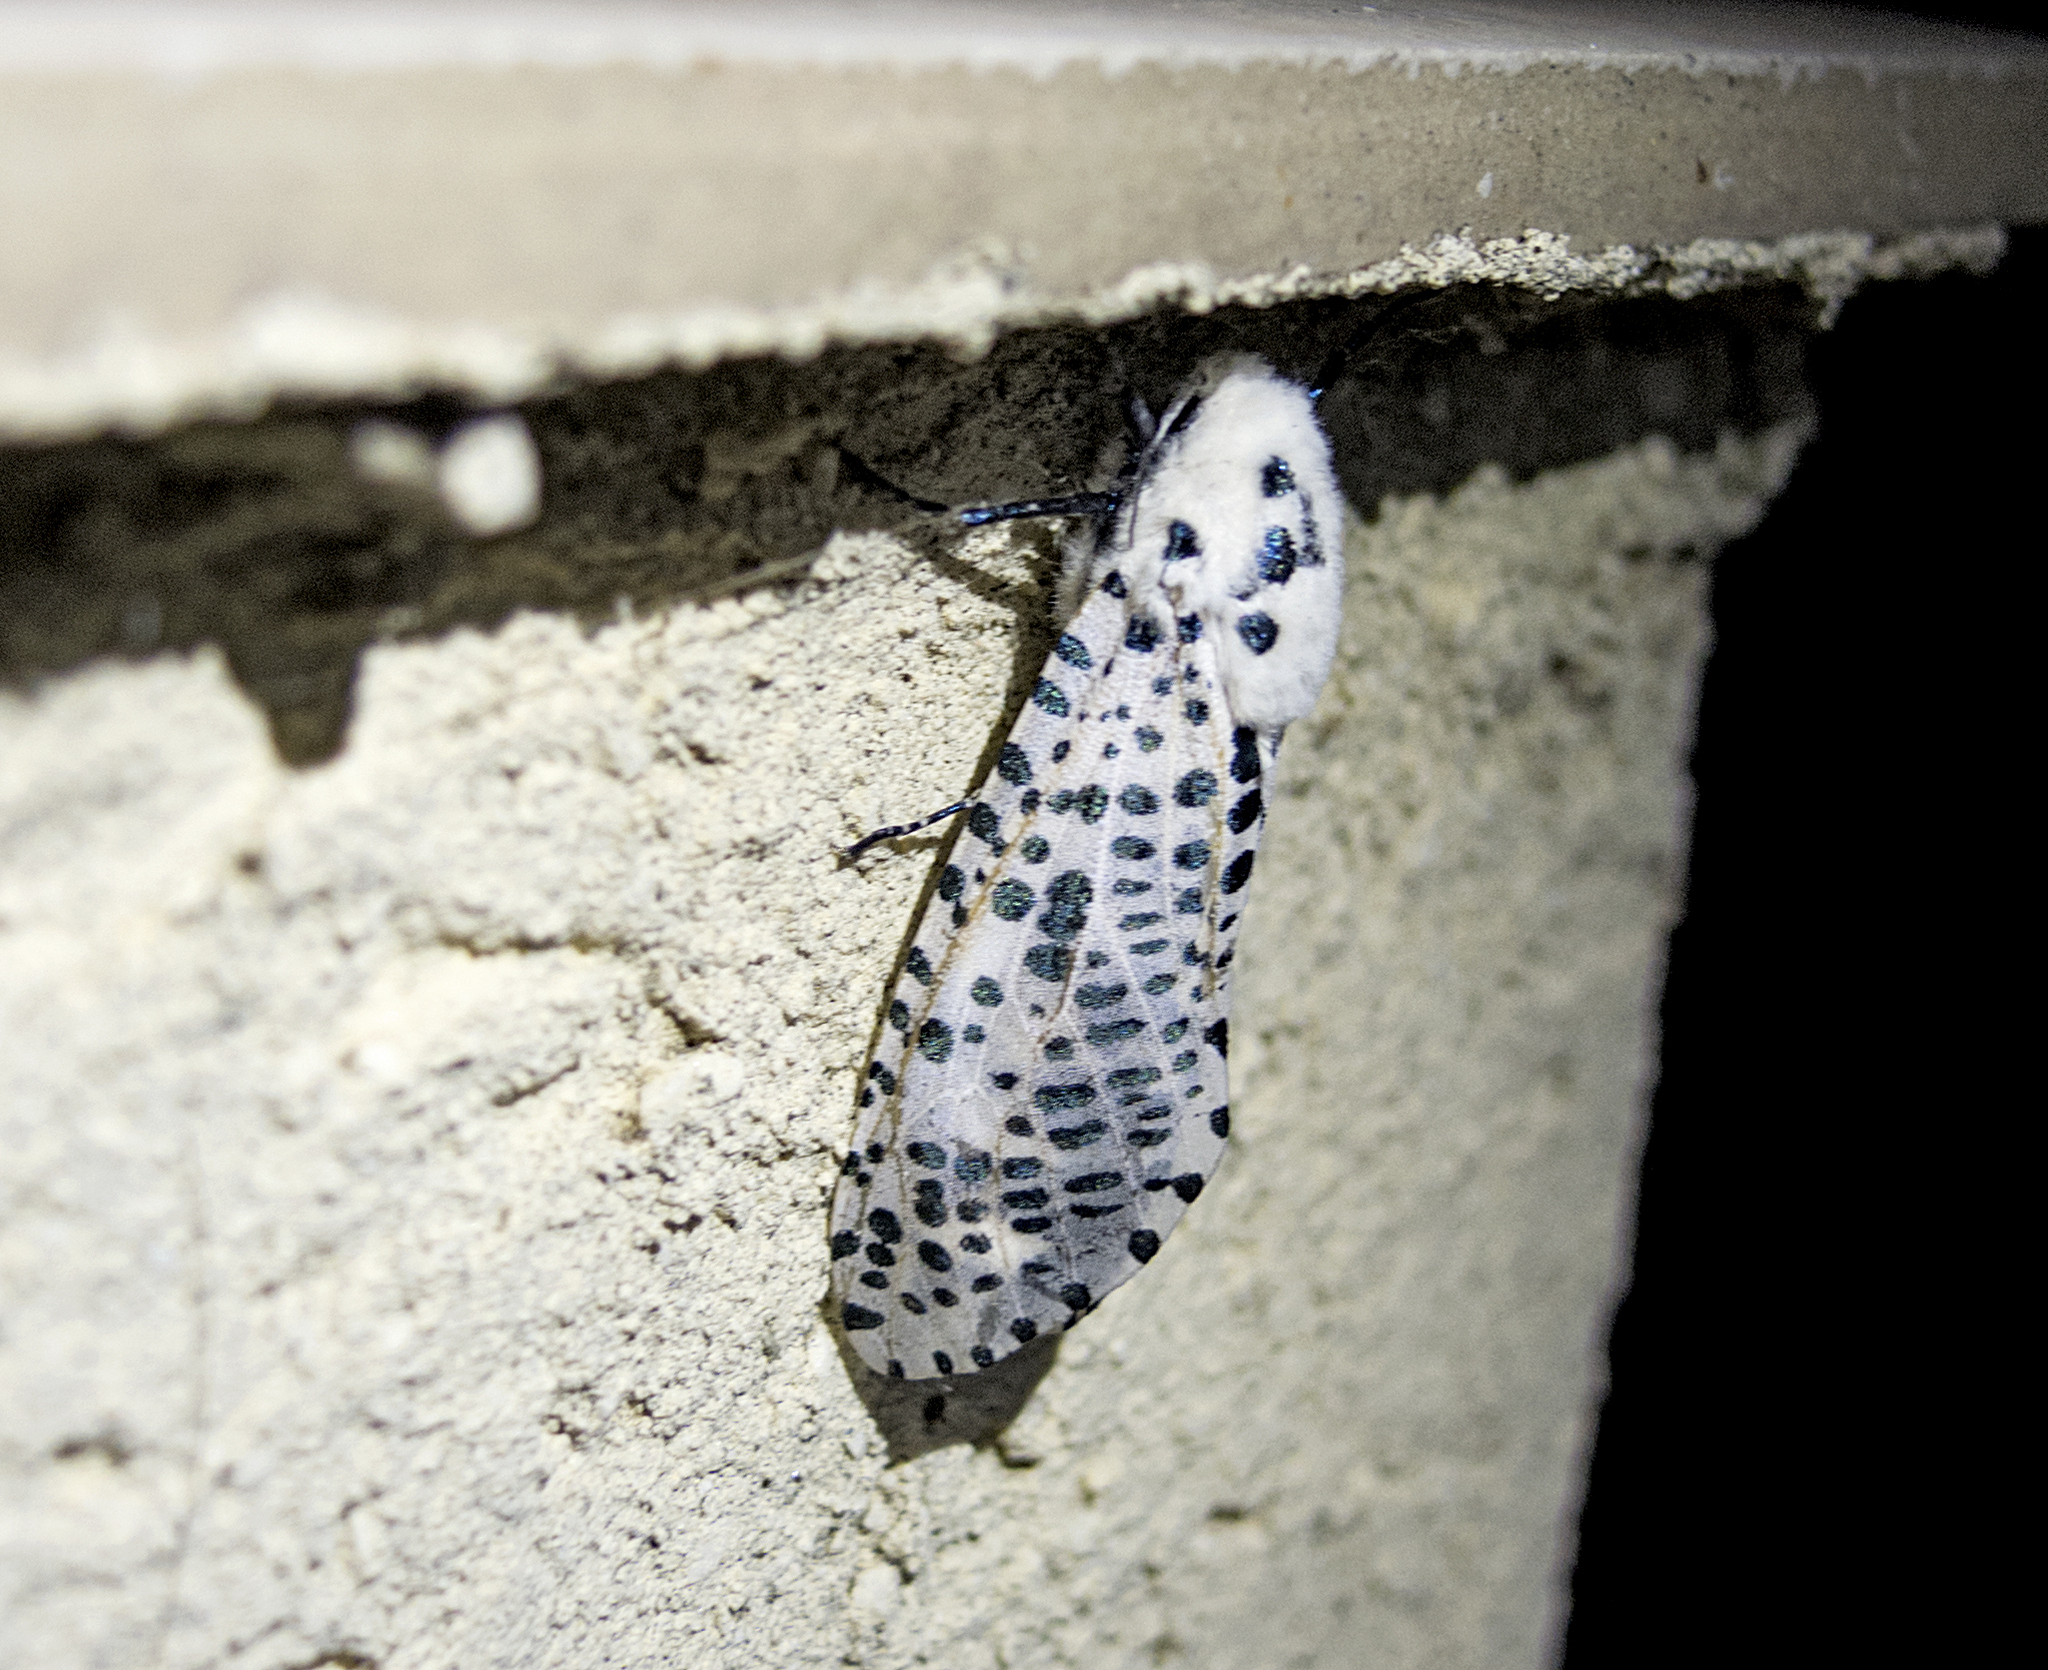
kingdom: Animalia
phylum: Arthropoda
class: Insecta
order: Lepidoptera
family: Cossidae
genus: Zeuzera
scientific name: Zeuzera pyrina
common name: Leopard moth
